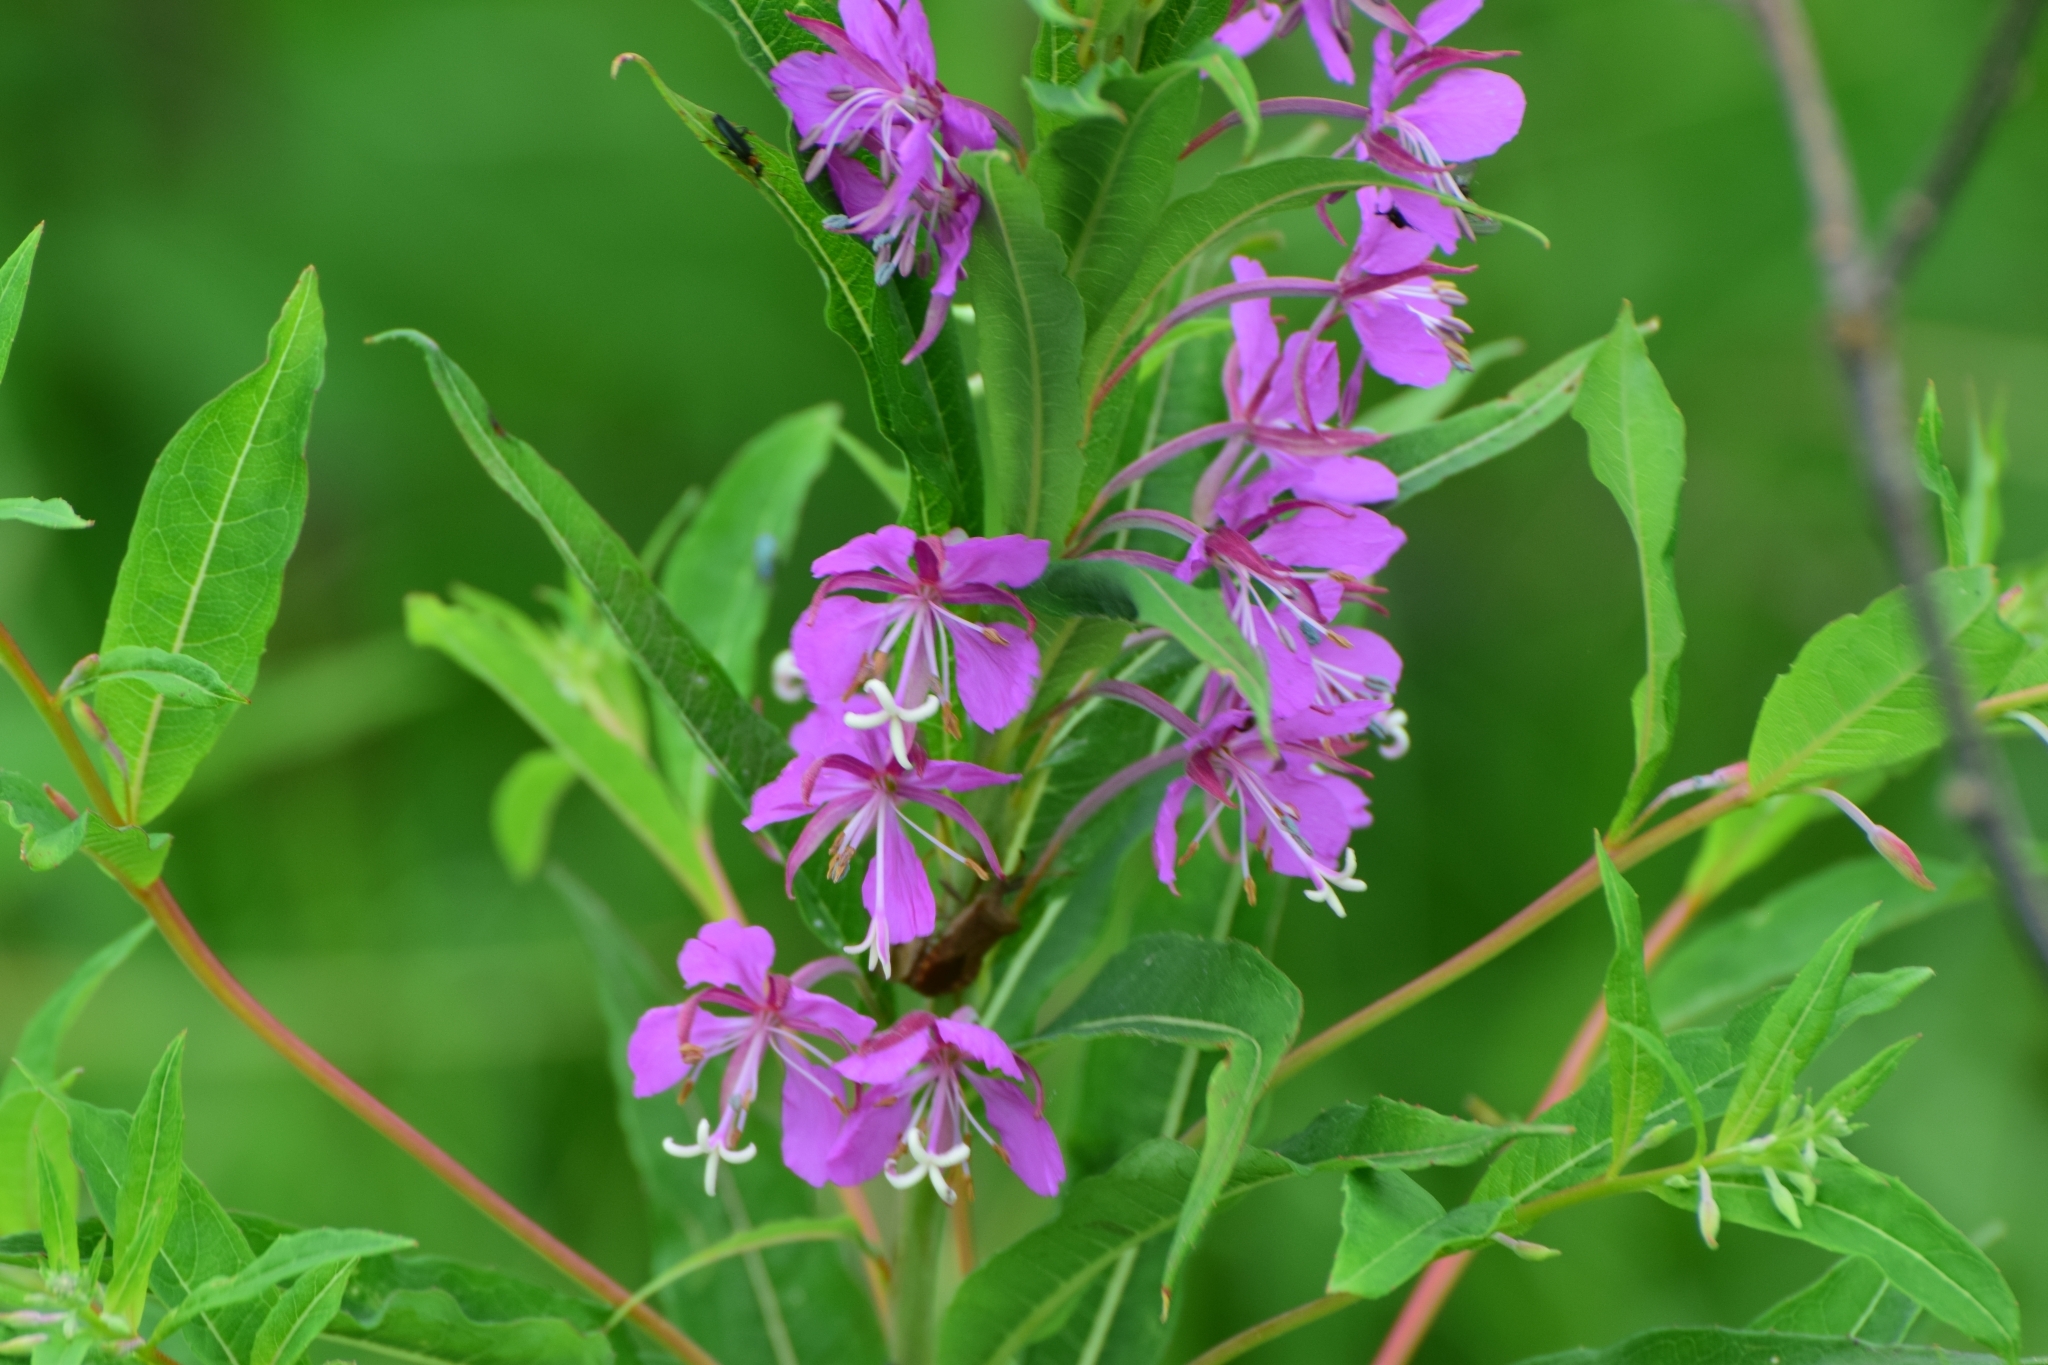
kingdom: Plantae
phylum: Tracheophyta
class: Magnoliopsida
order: Myrtales
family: Onagraceae
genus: Chamaenerion
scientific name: Chamaenerion angustifolium
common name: Fireweed
